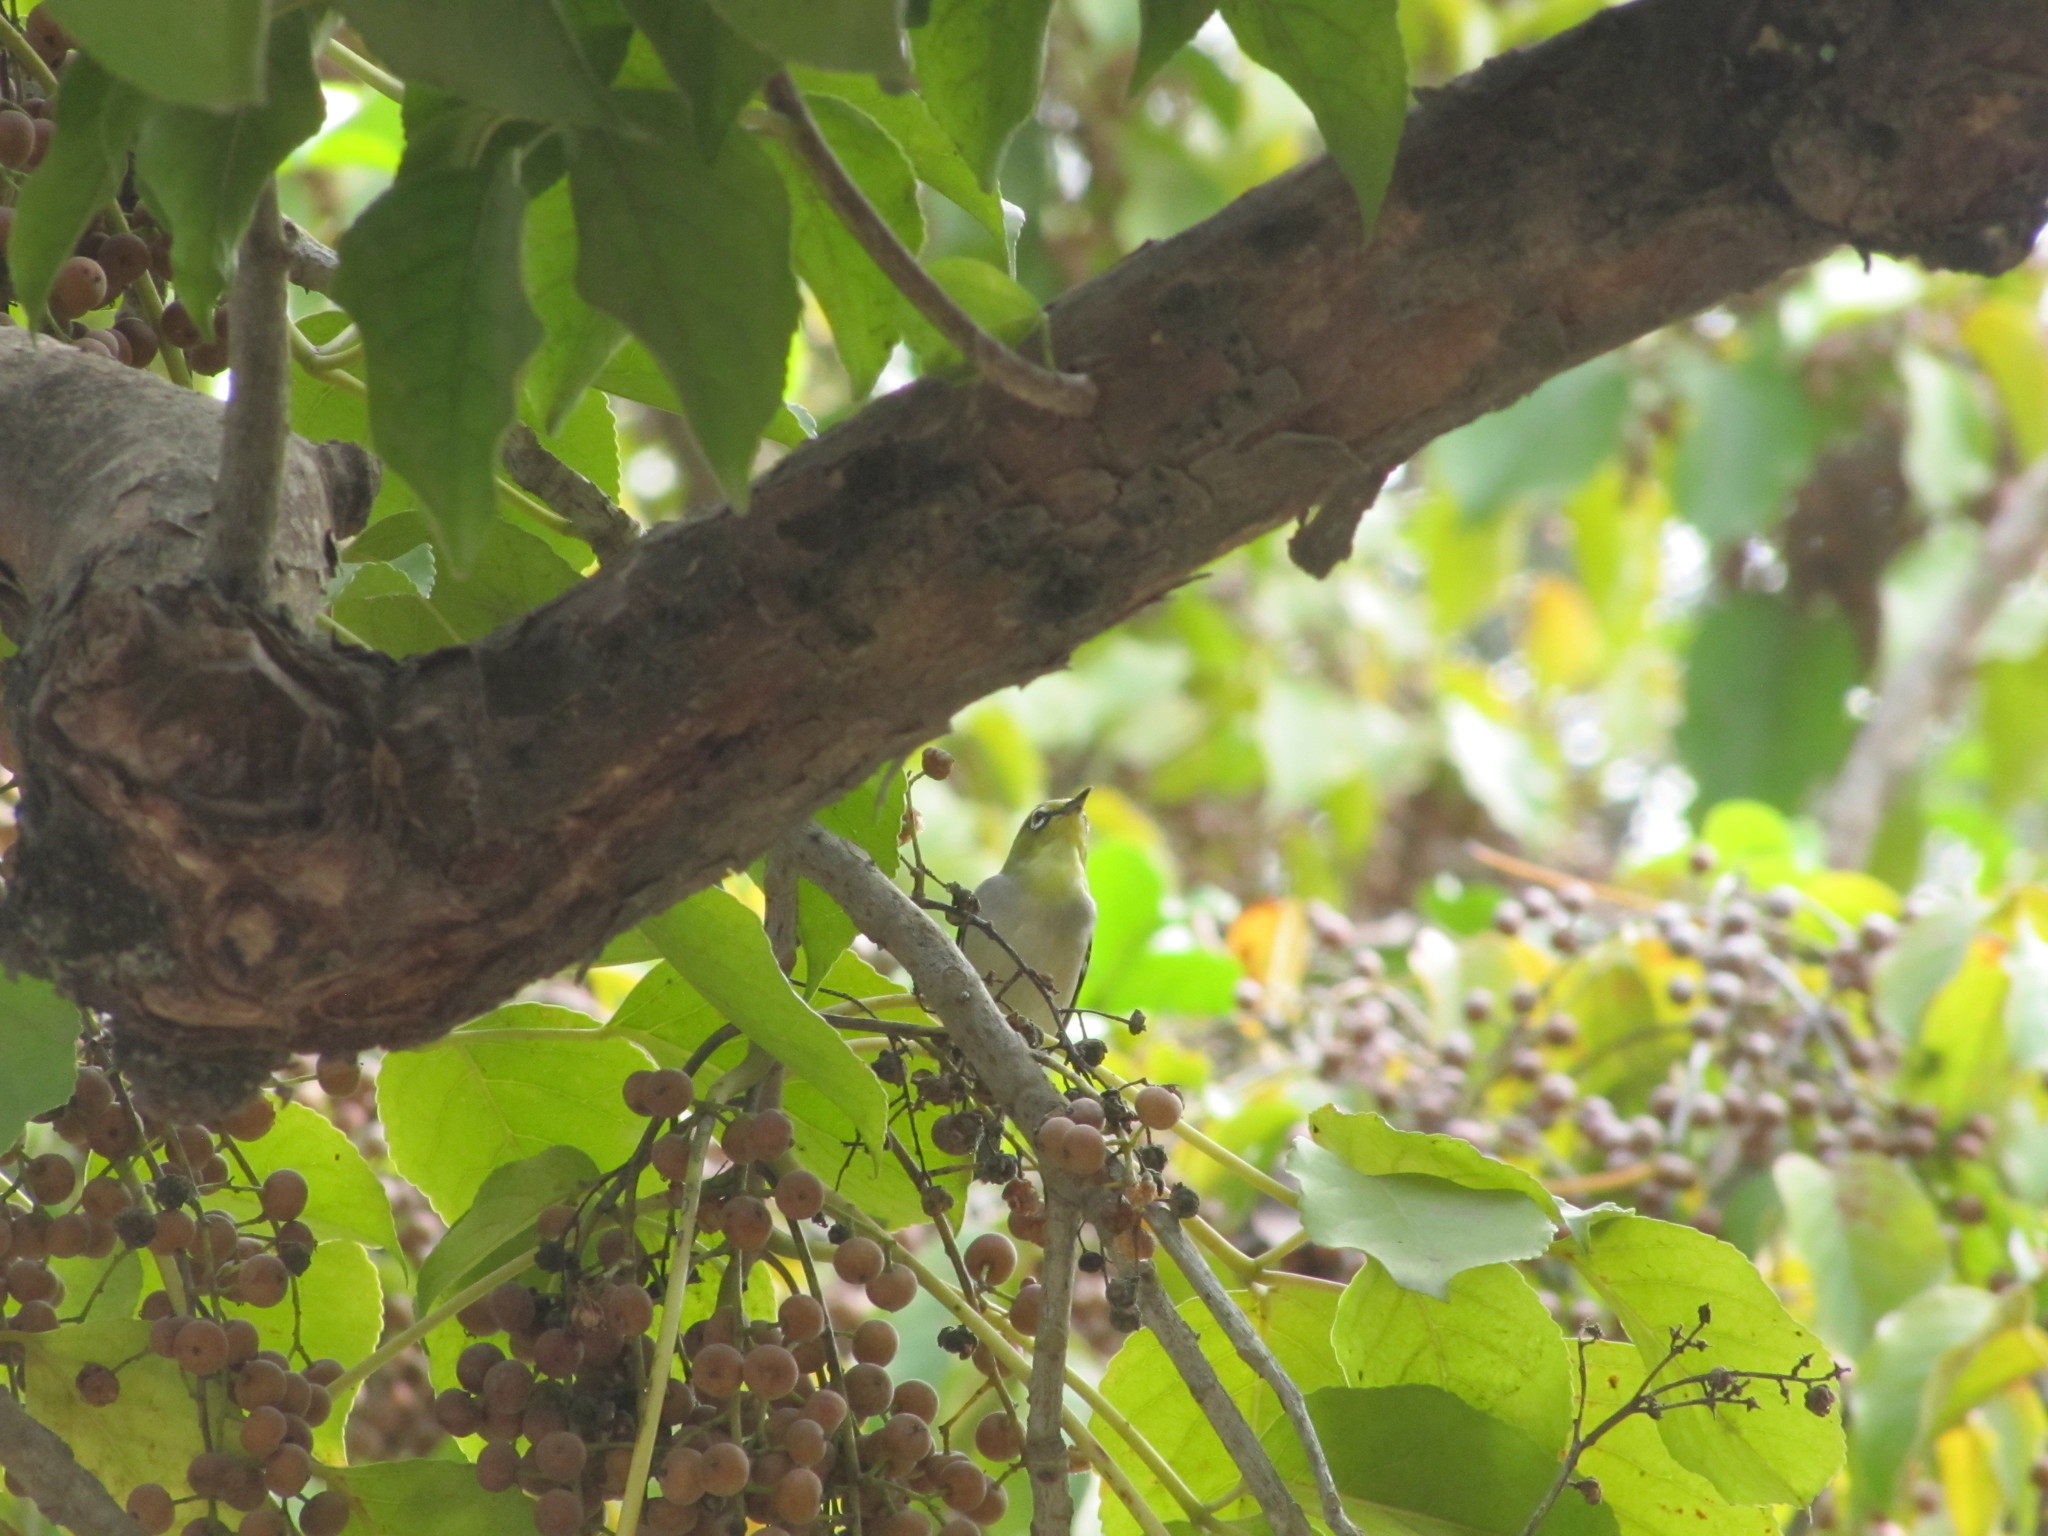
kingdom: Animalia
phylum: Chordata
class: Aves
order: Passeriformes
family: Zosteropidae
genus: Zosterops
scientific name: Zosterops simplex
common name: Swinhoe's white-eye
